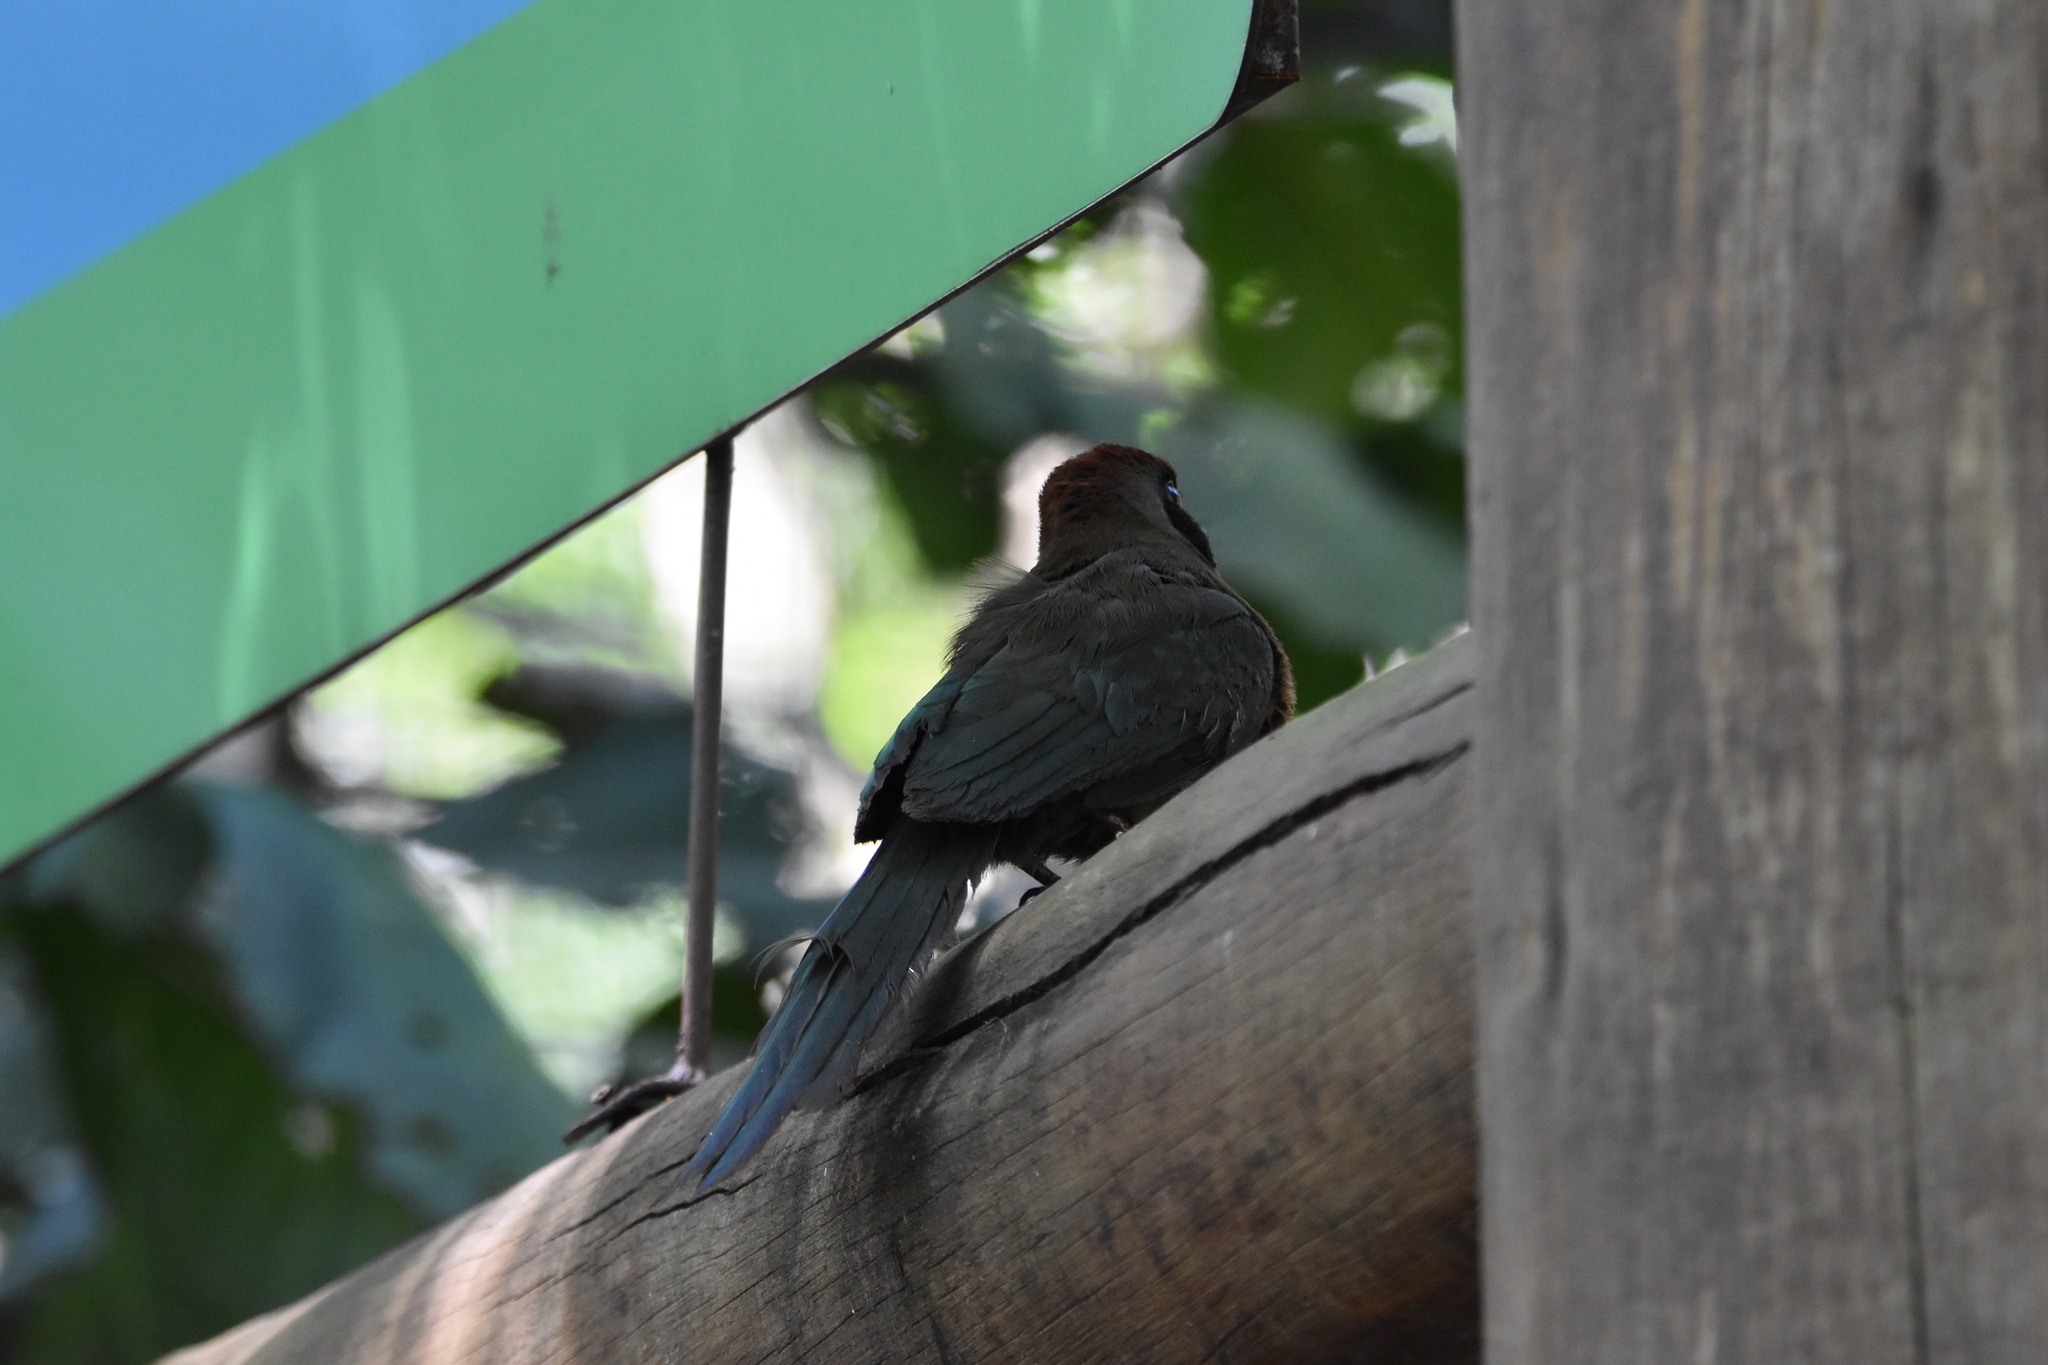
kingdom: Animalia
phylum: Chordata
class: Aves
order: Coraciiformes
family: Momotidae
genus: Baryphthengus
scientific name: Baryphthengus ruficapillus
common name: Rufous-capped motmot
